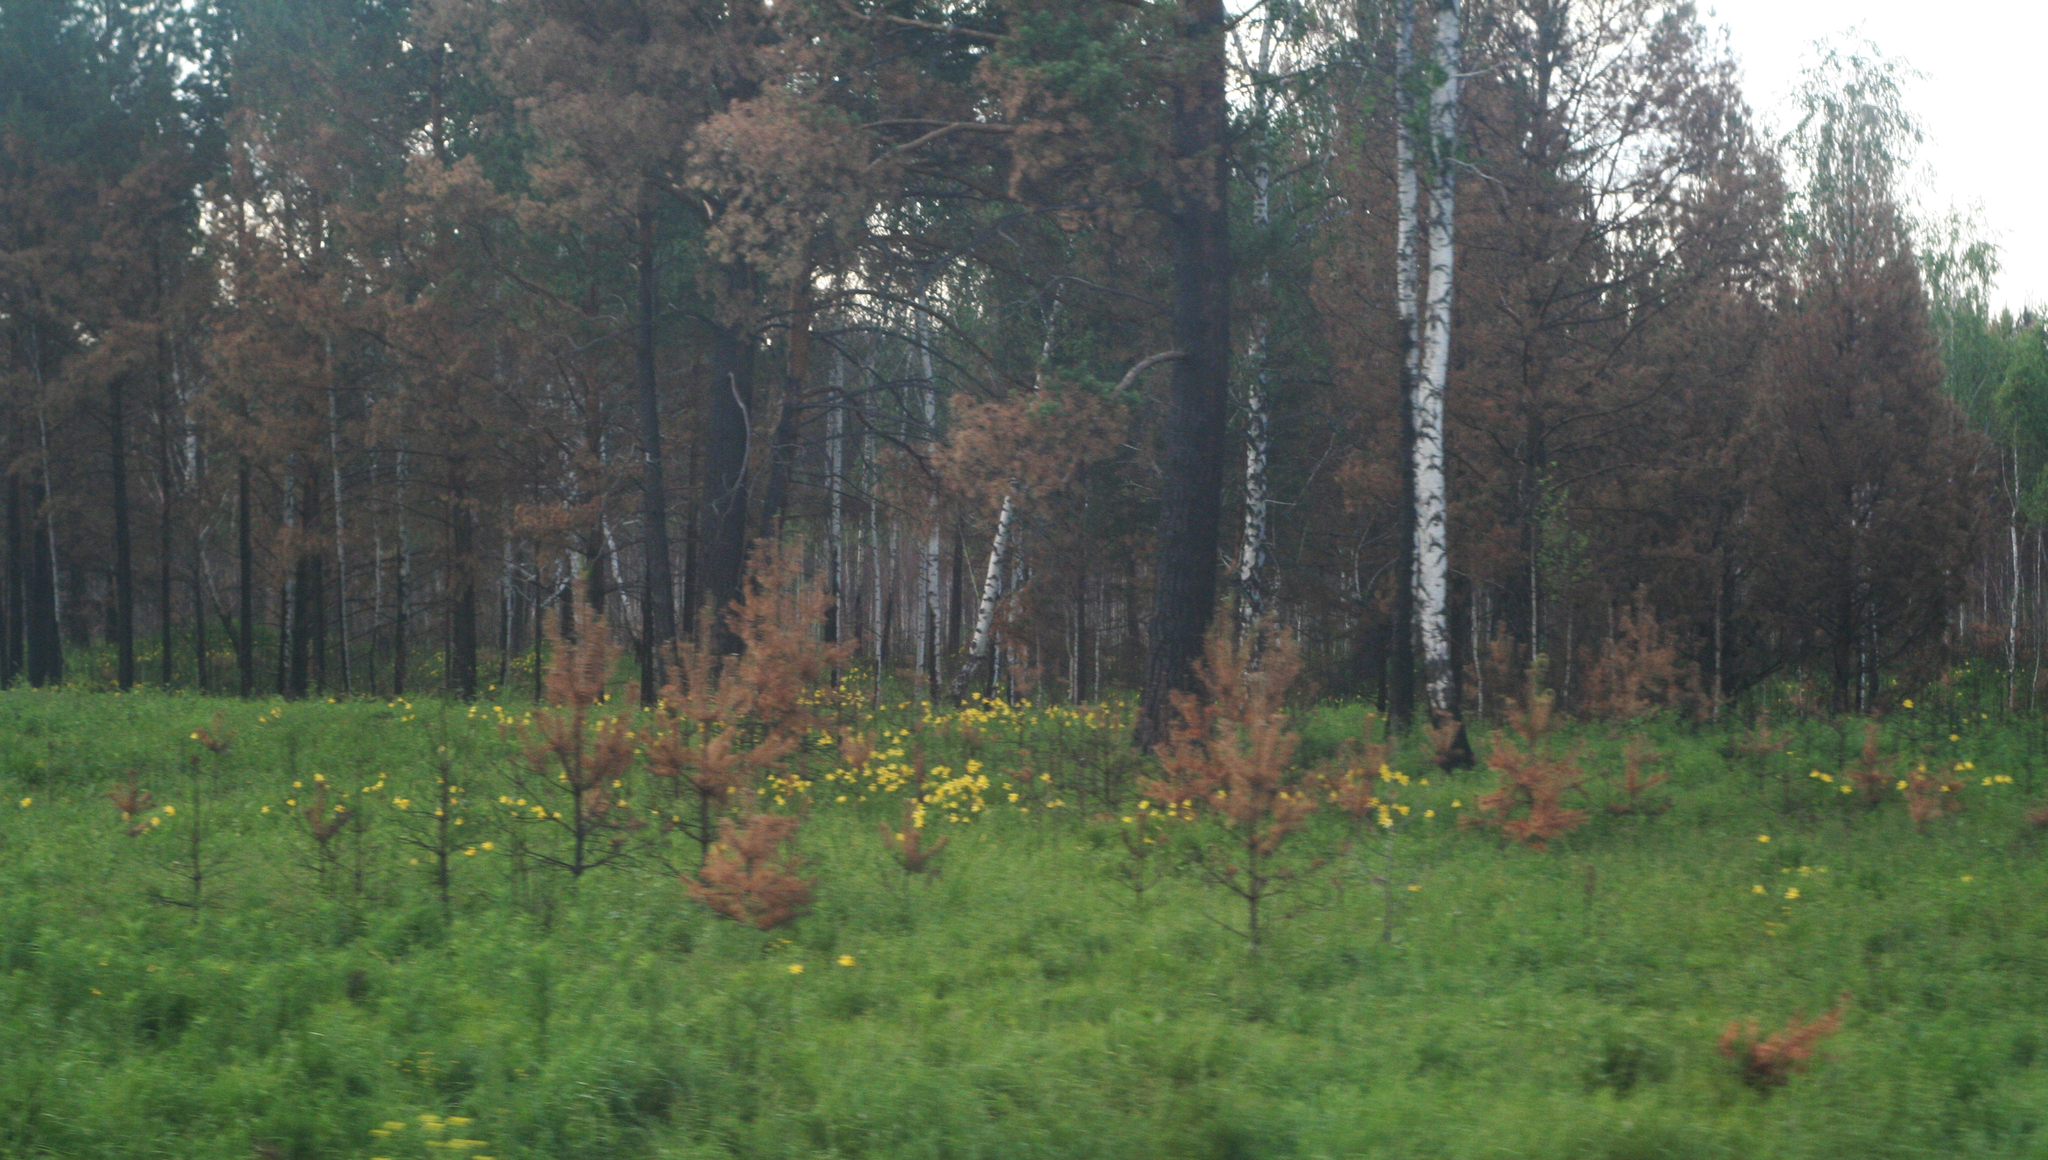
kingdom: Plantae
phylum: Tracheophyta
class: Liliopsida
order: Asparagales
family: Asphodelaceae
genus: Hemerocallis
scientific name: Hemerocallis minor
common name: Small daylily
